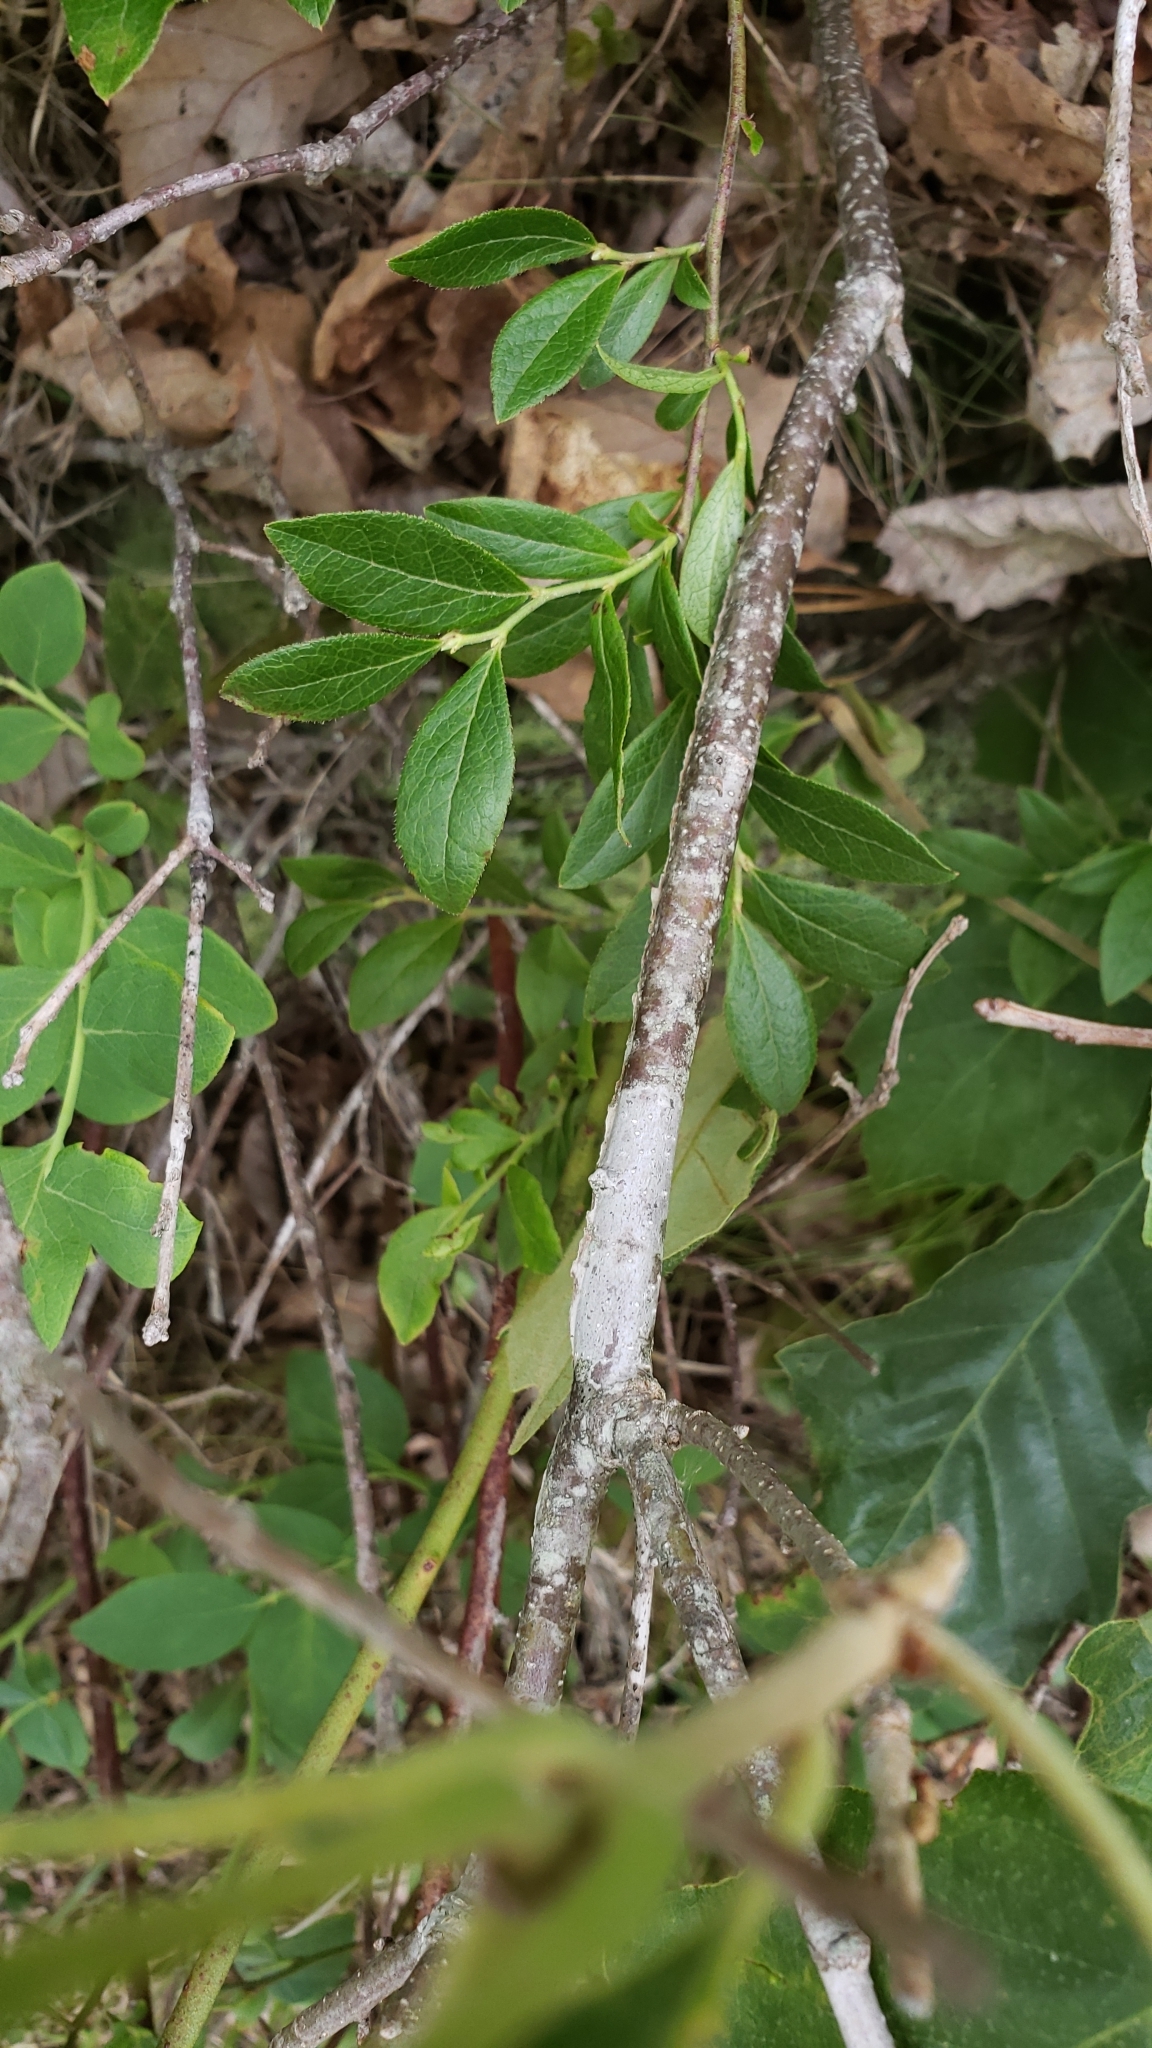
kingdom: Plantae
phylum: Tracheophyta
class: Magnoliopsida
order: Fagales
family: Fagaceae
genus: Quercus
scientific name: Quercus prinoides
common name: Dwarf chinkapin oak
